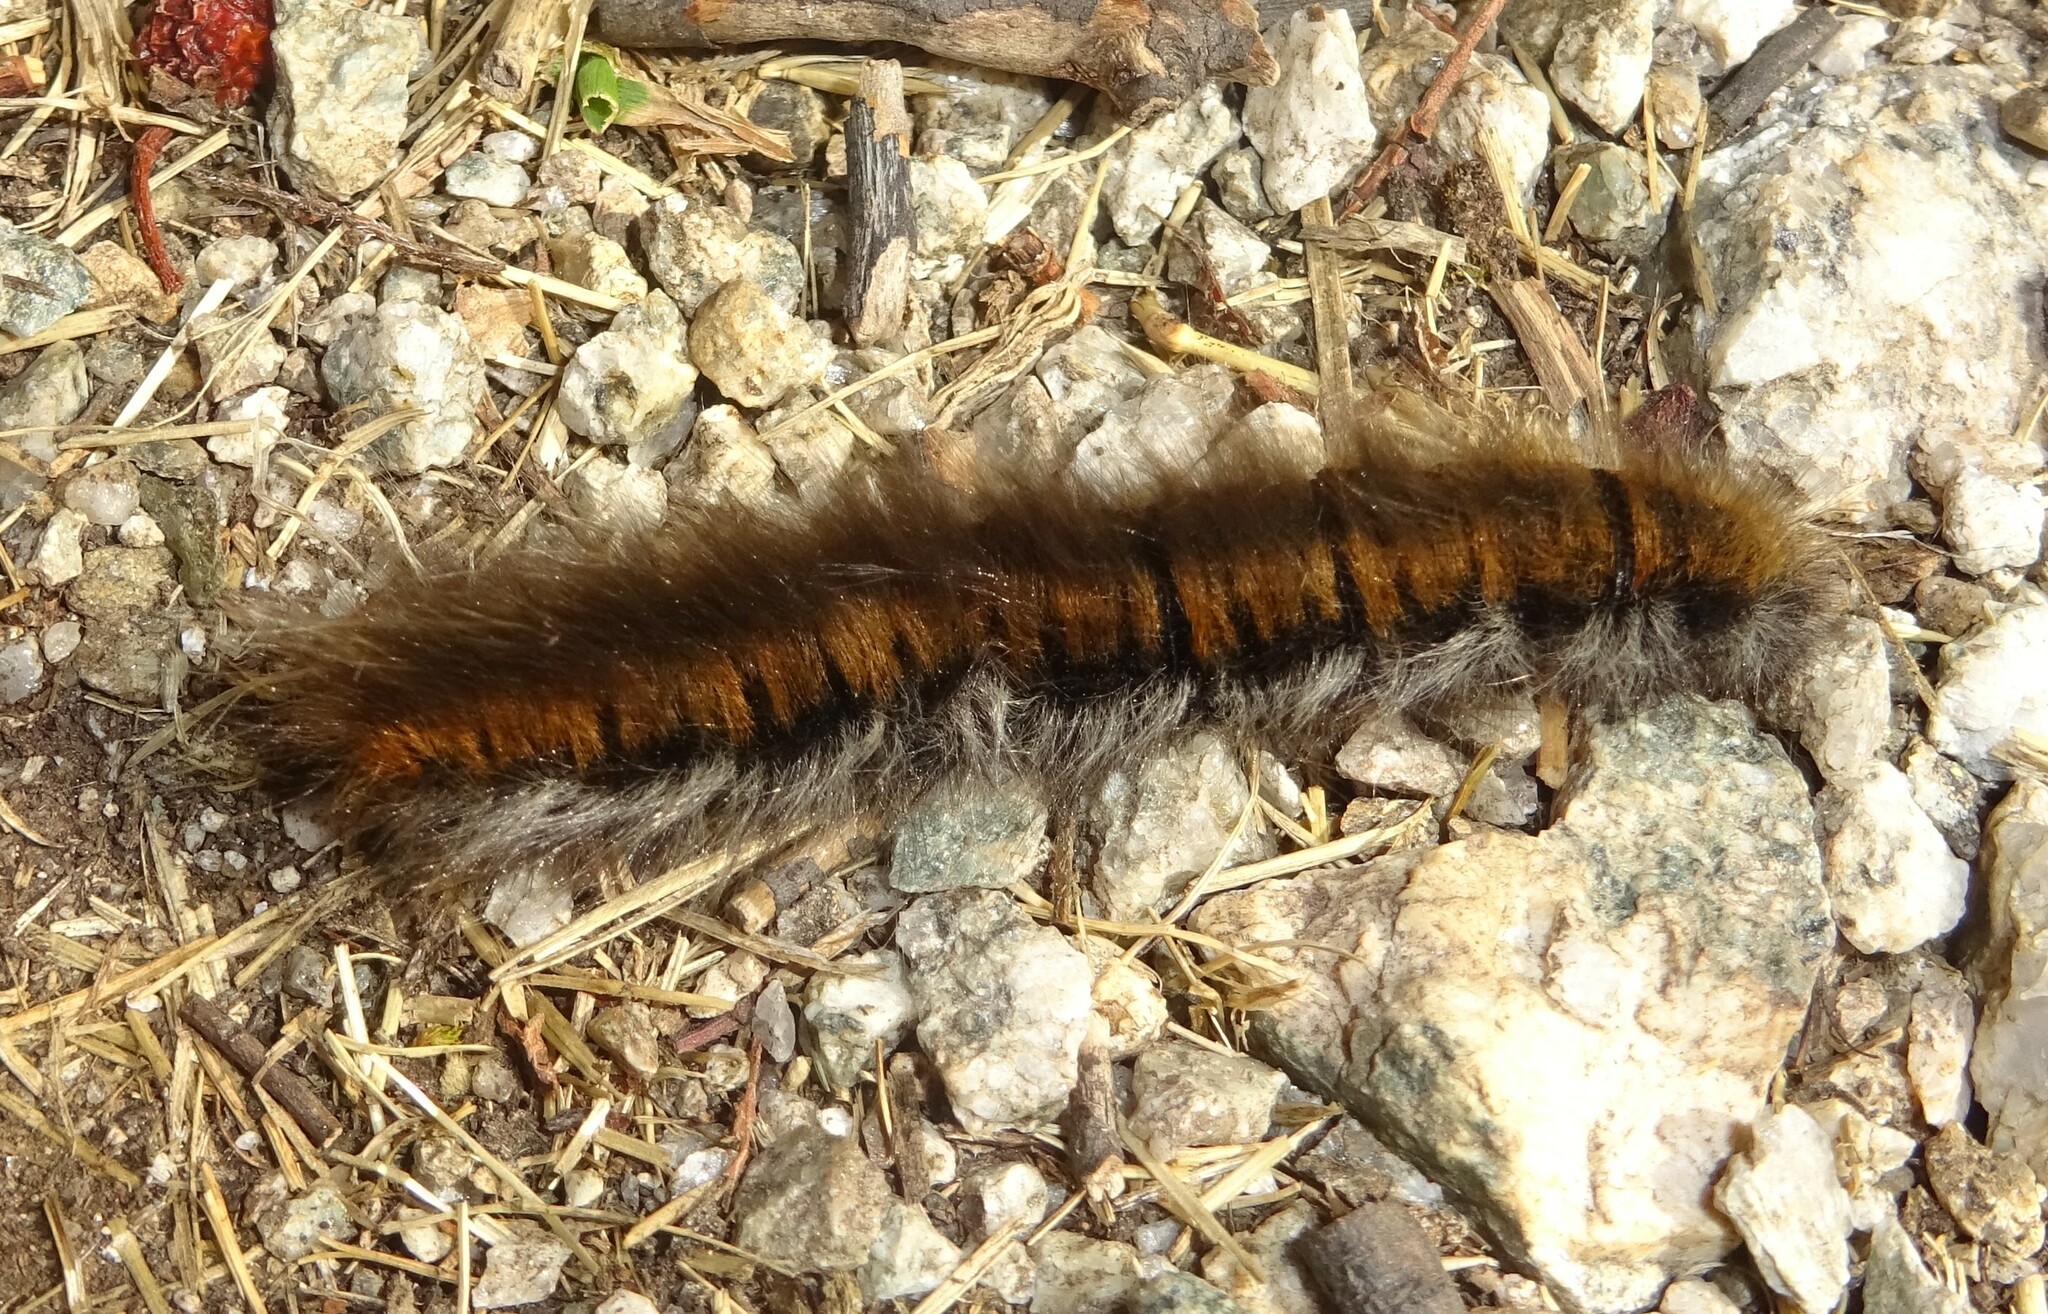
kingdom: Animalia
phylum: Arthropoda
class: Insecta
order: Lepidoptera
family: Lasiocampidae
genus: Macrothylacia
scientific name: Macrothylacia rubi
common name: Fox moth
